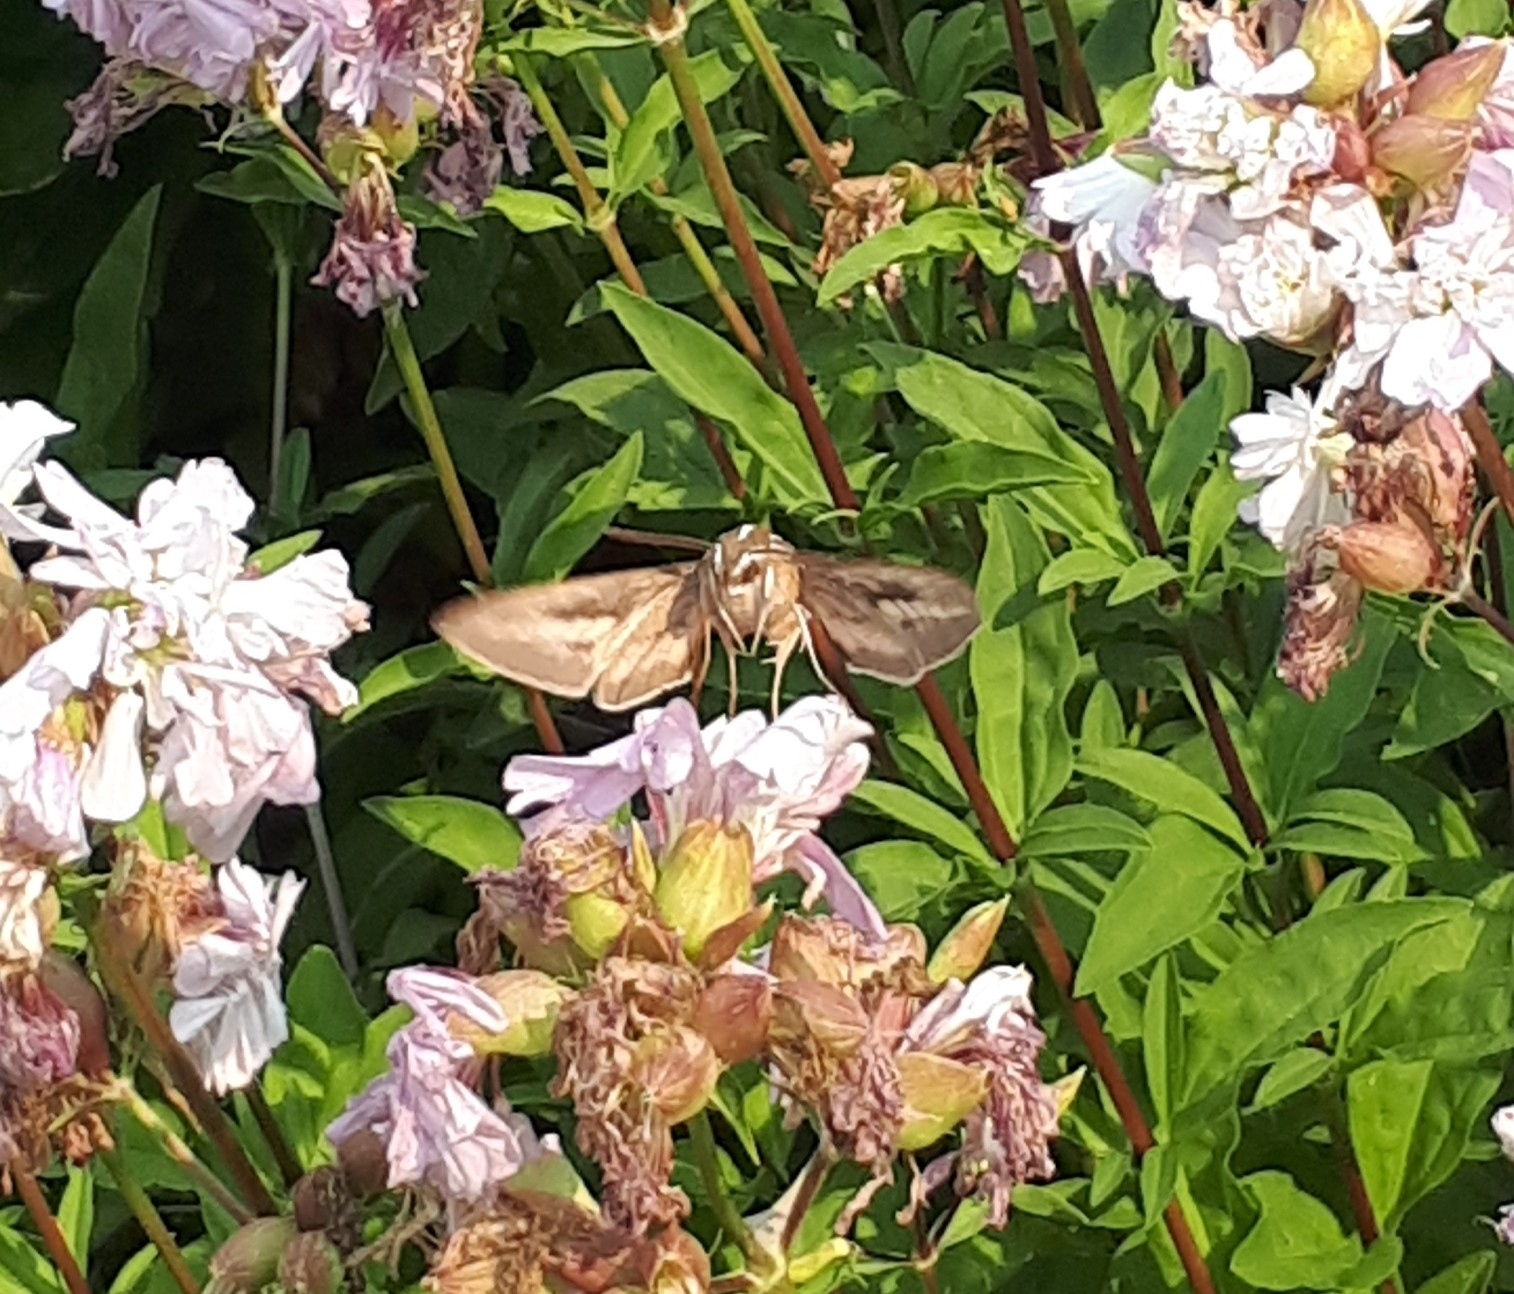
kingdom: Animalia
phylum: Arthropoda
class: Insecta
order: Lepidoptera
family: Sphingidae
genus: Hyles
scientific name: Hyles lineata
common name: White-lined sphinx
